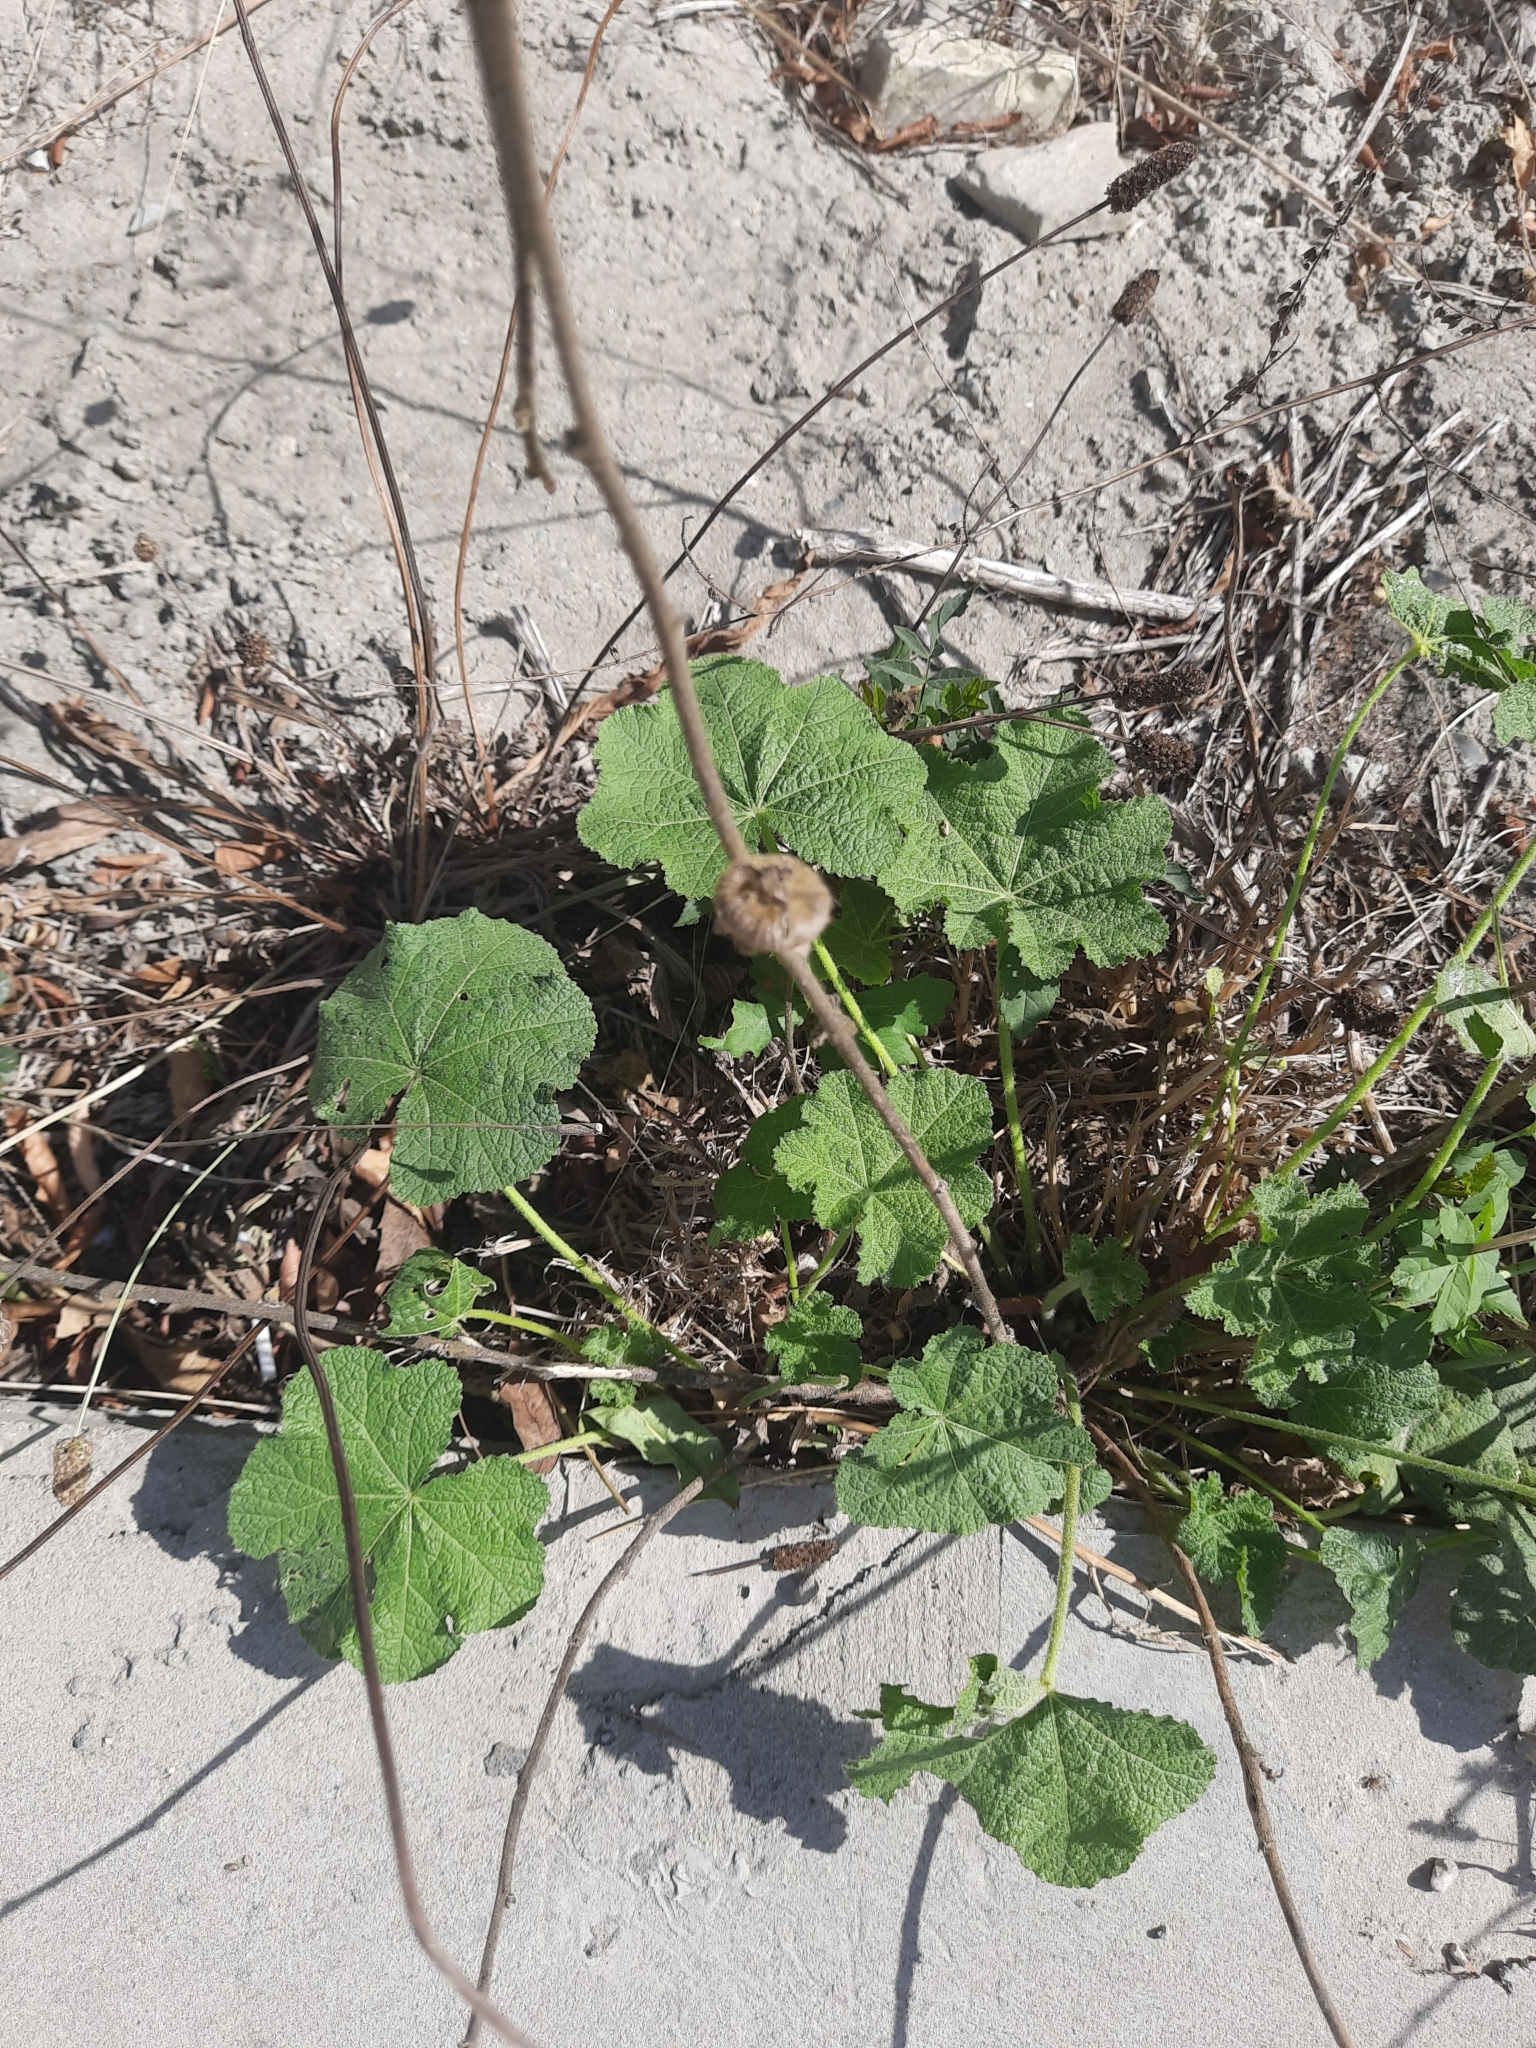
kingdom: Plantae
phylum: Tracheophyta
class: Magnoliopsida
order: Malvales
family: Malvaceae
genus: Alcea
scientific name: Alcea rugosa
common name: Russian hollyhock
